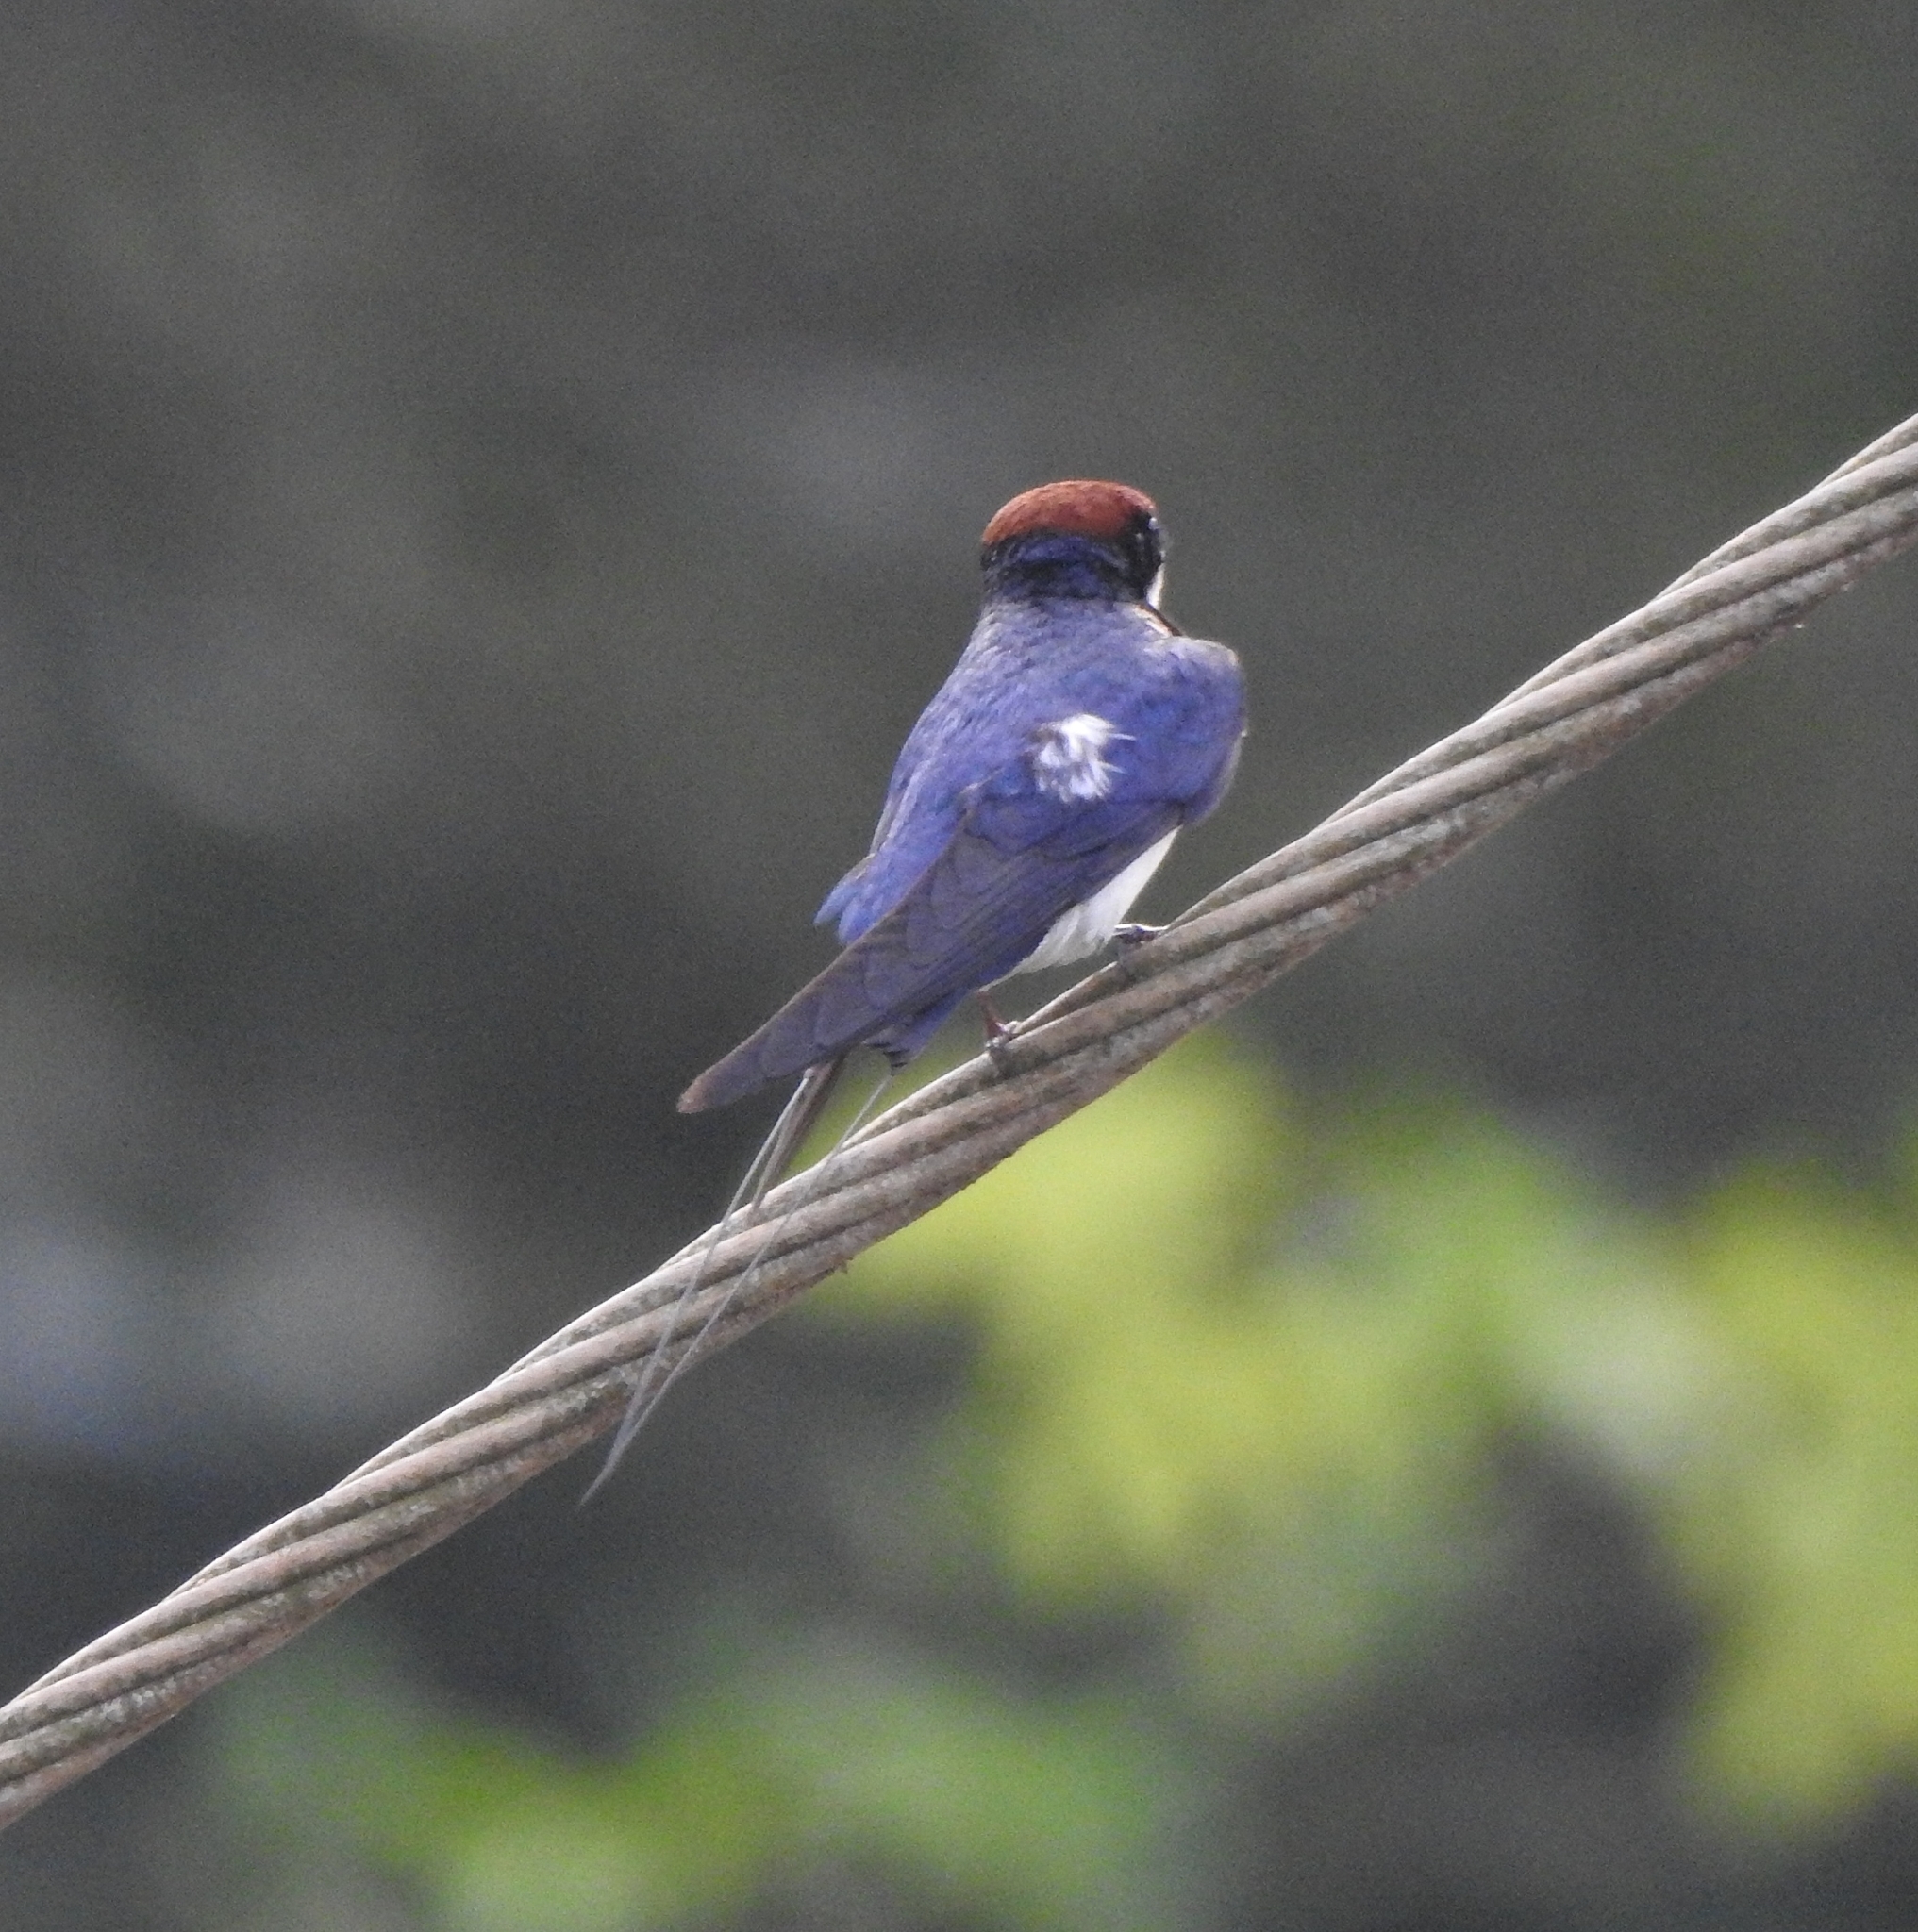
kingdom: Animalia
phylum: Chordata
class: Aves
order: Passeriformes
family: Hirundinidae
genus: Hirundo
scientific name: Hirundo smithii
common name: Wire-tailed swallow
